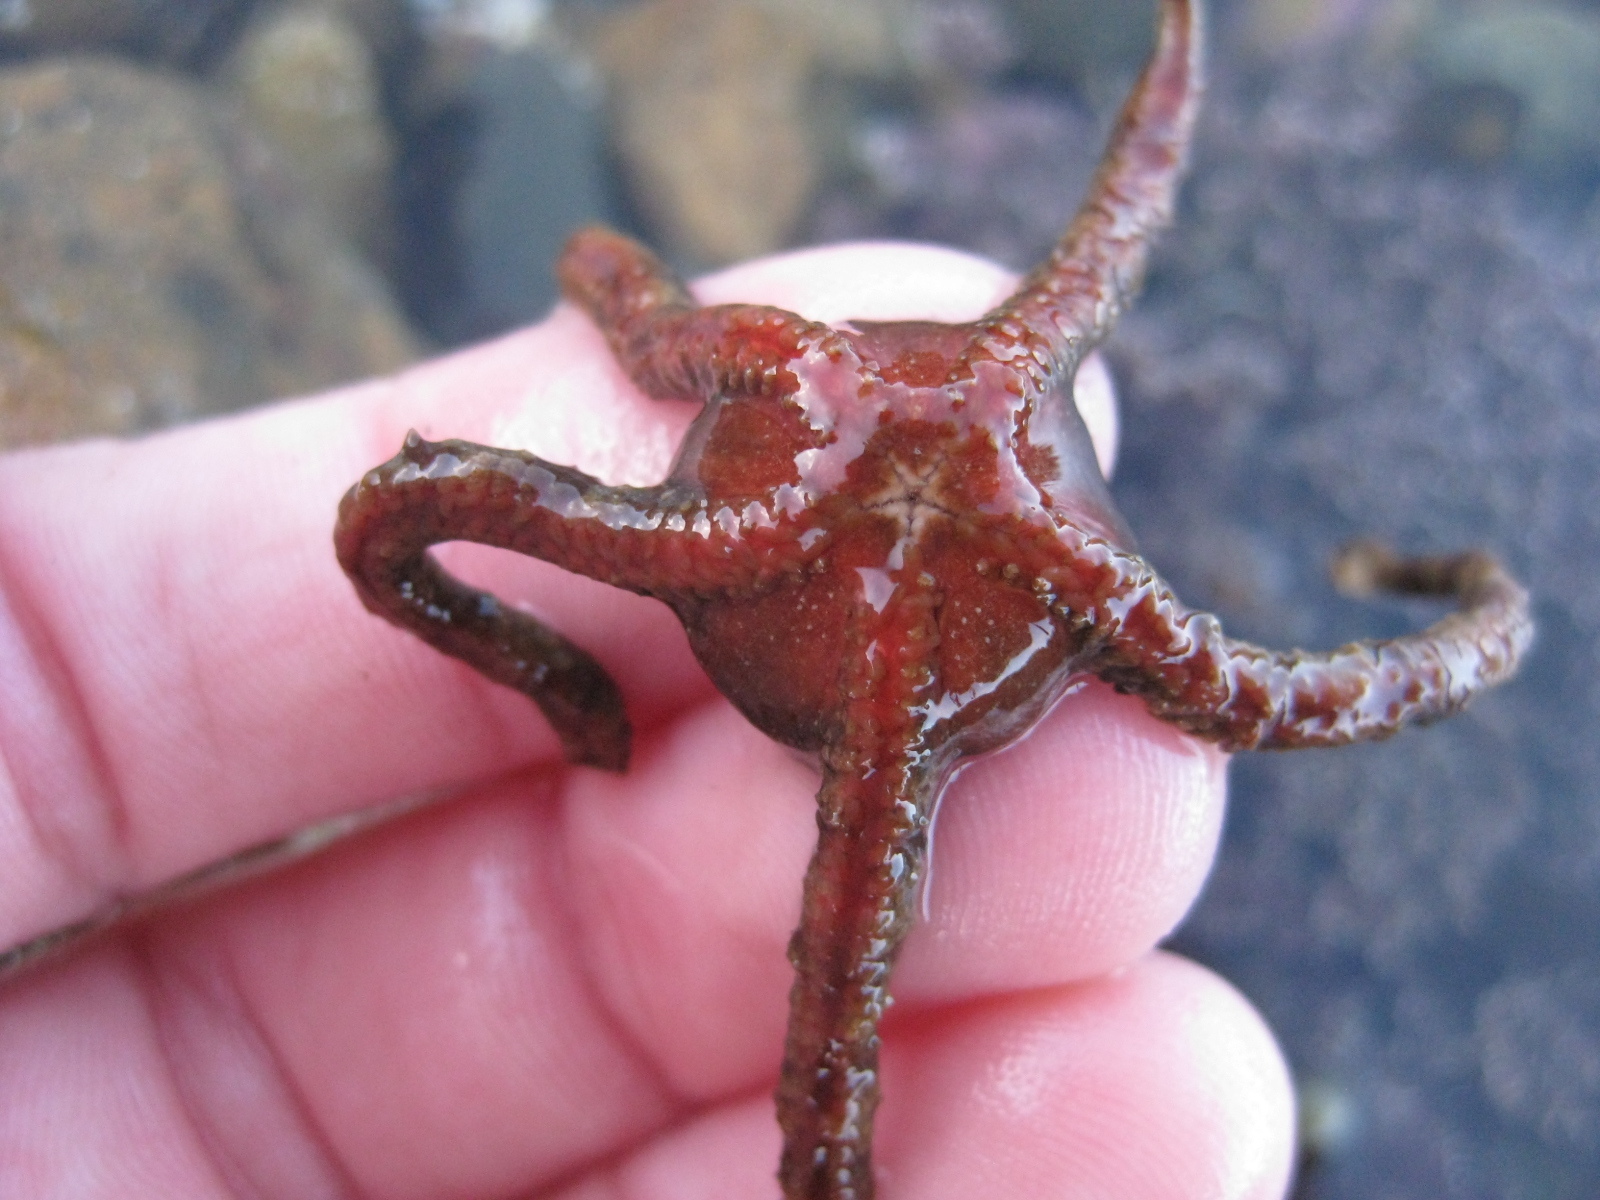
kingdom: Animalia
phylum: Echinodermata
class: Ophiuroidea
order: Ophiacanthida
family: Ophiomyxidae
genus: Ophiomyxa
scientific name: Ophiomyxa brevirima
